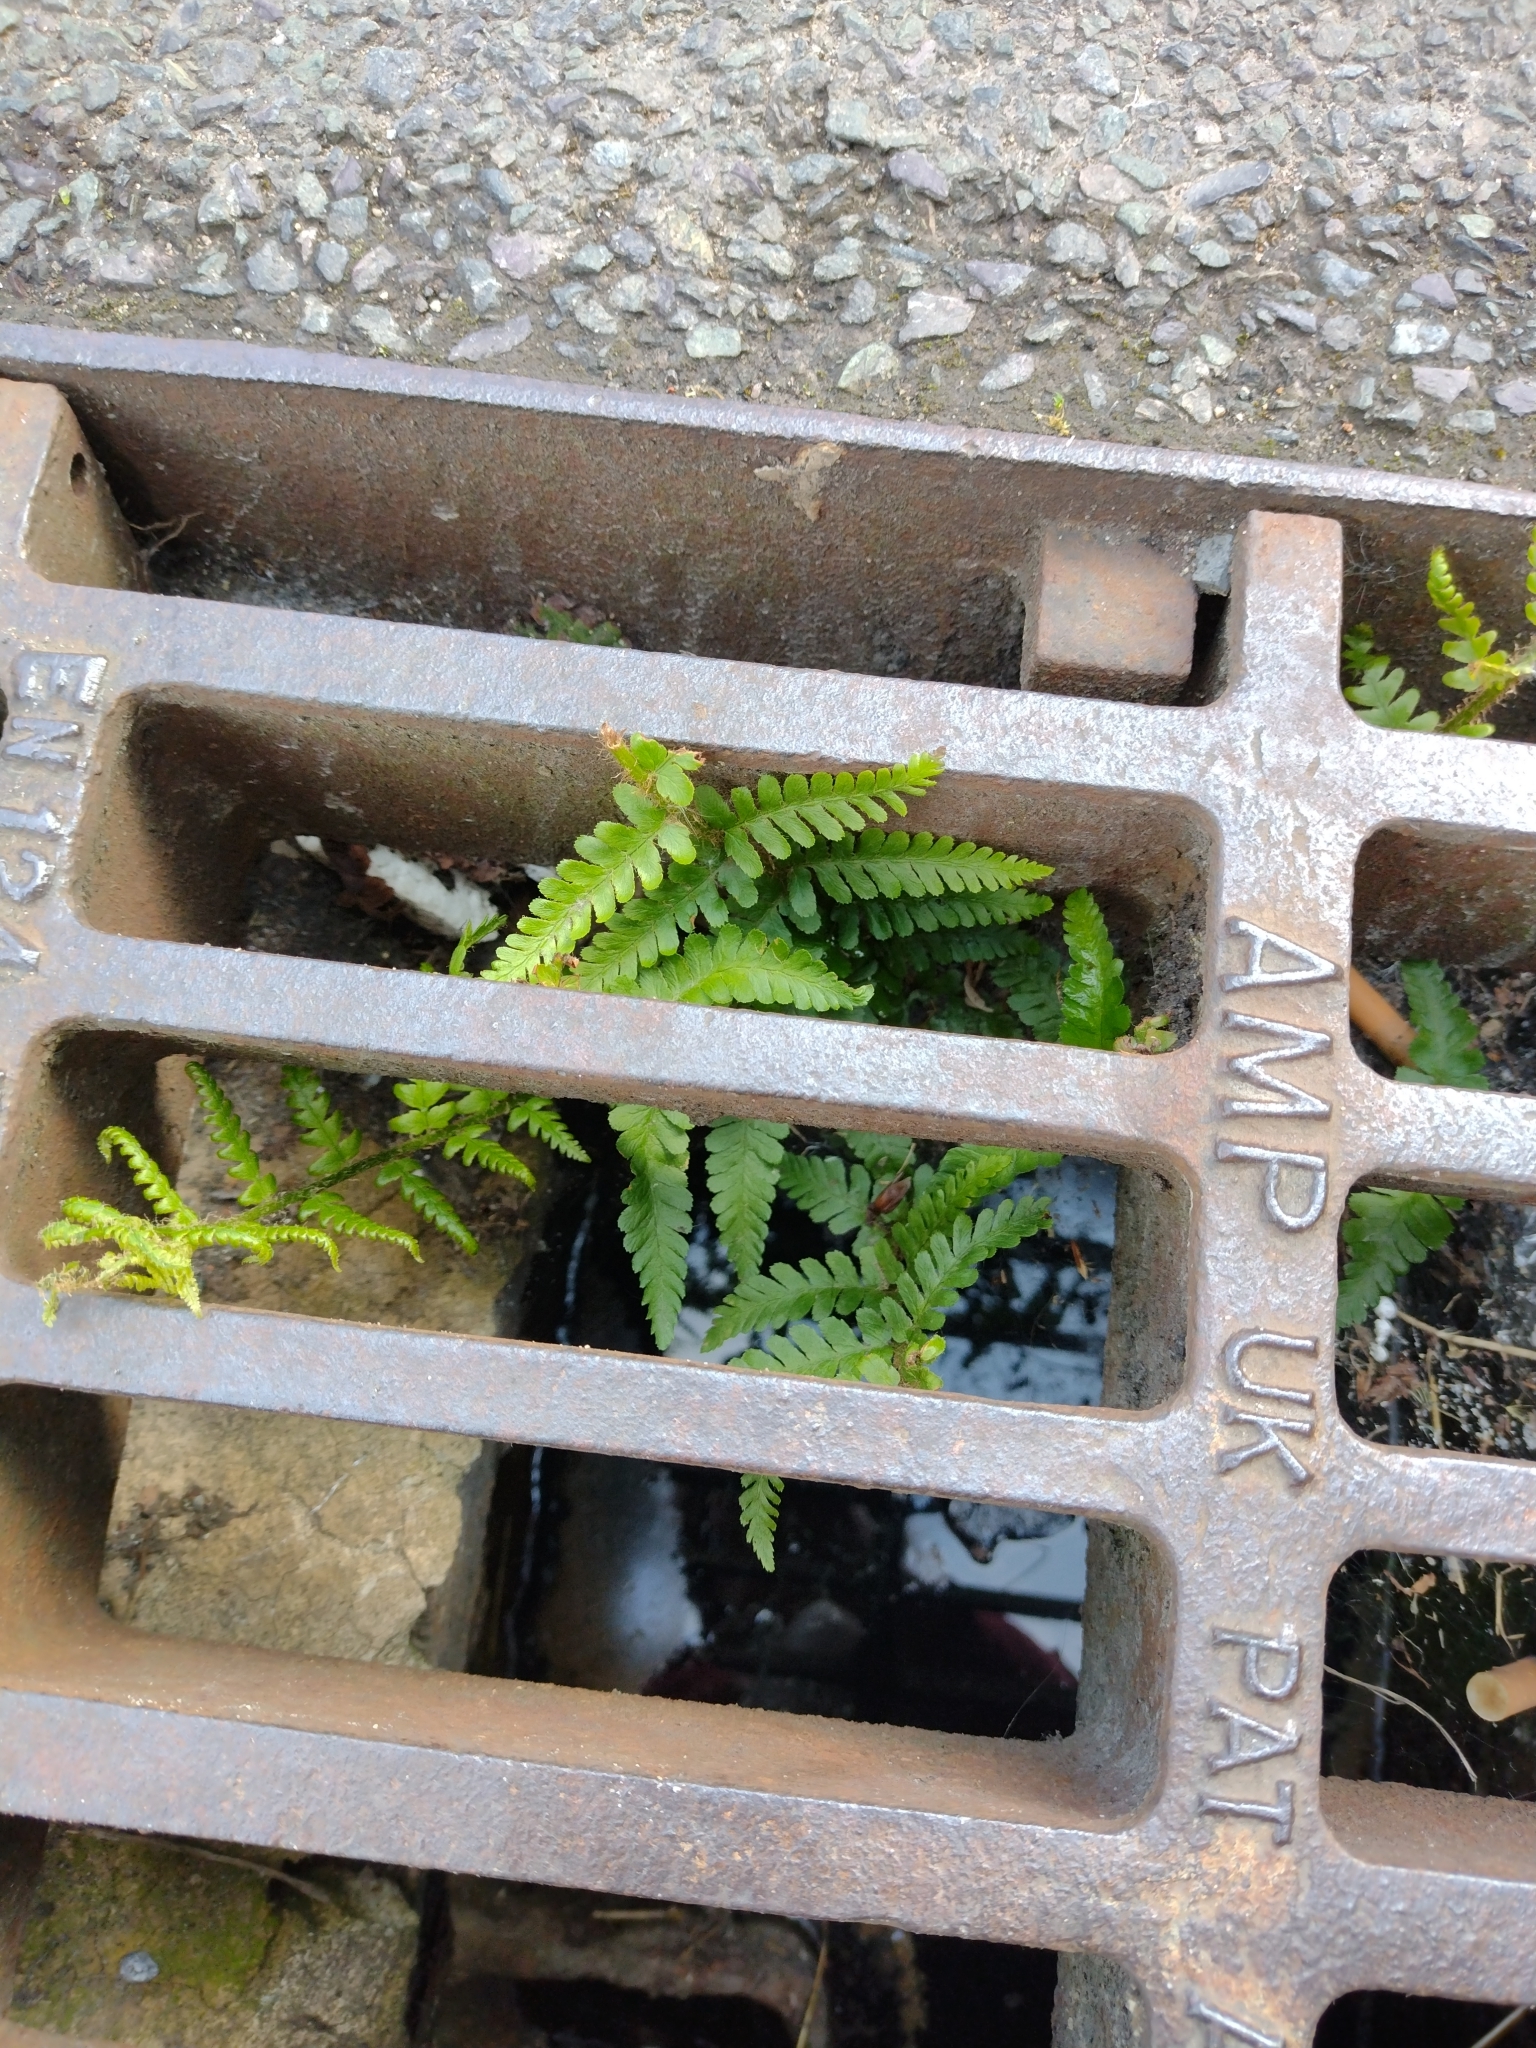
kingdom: Plantae
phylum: Tracheophyta
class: Polypodiopsida
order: Polypodiales
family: Dryopteridaceae
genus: Dryopteris
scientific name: Dryopteris filix-mas
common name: Male fern
